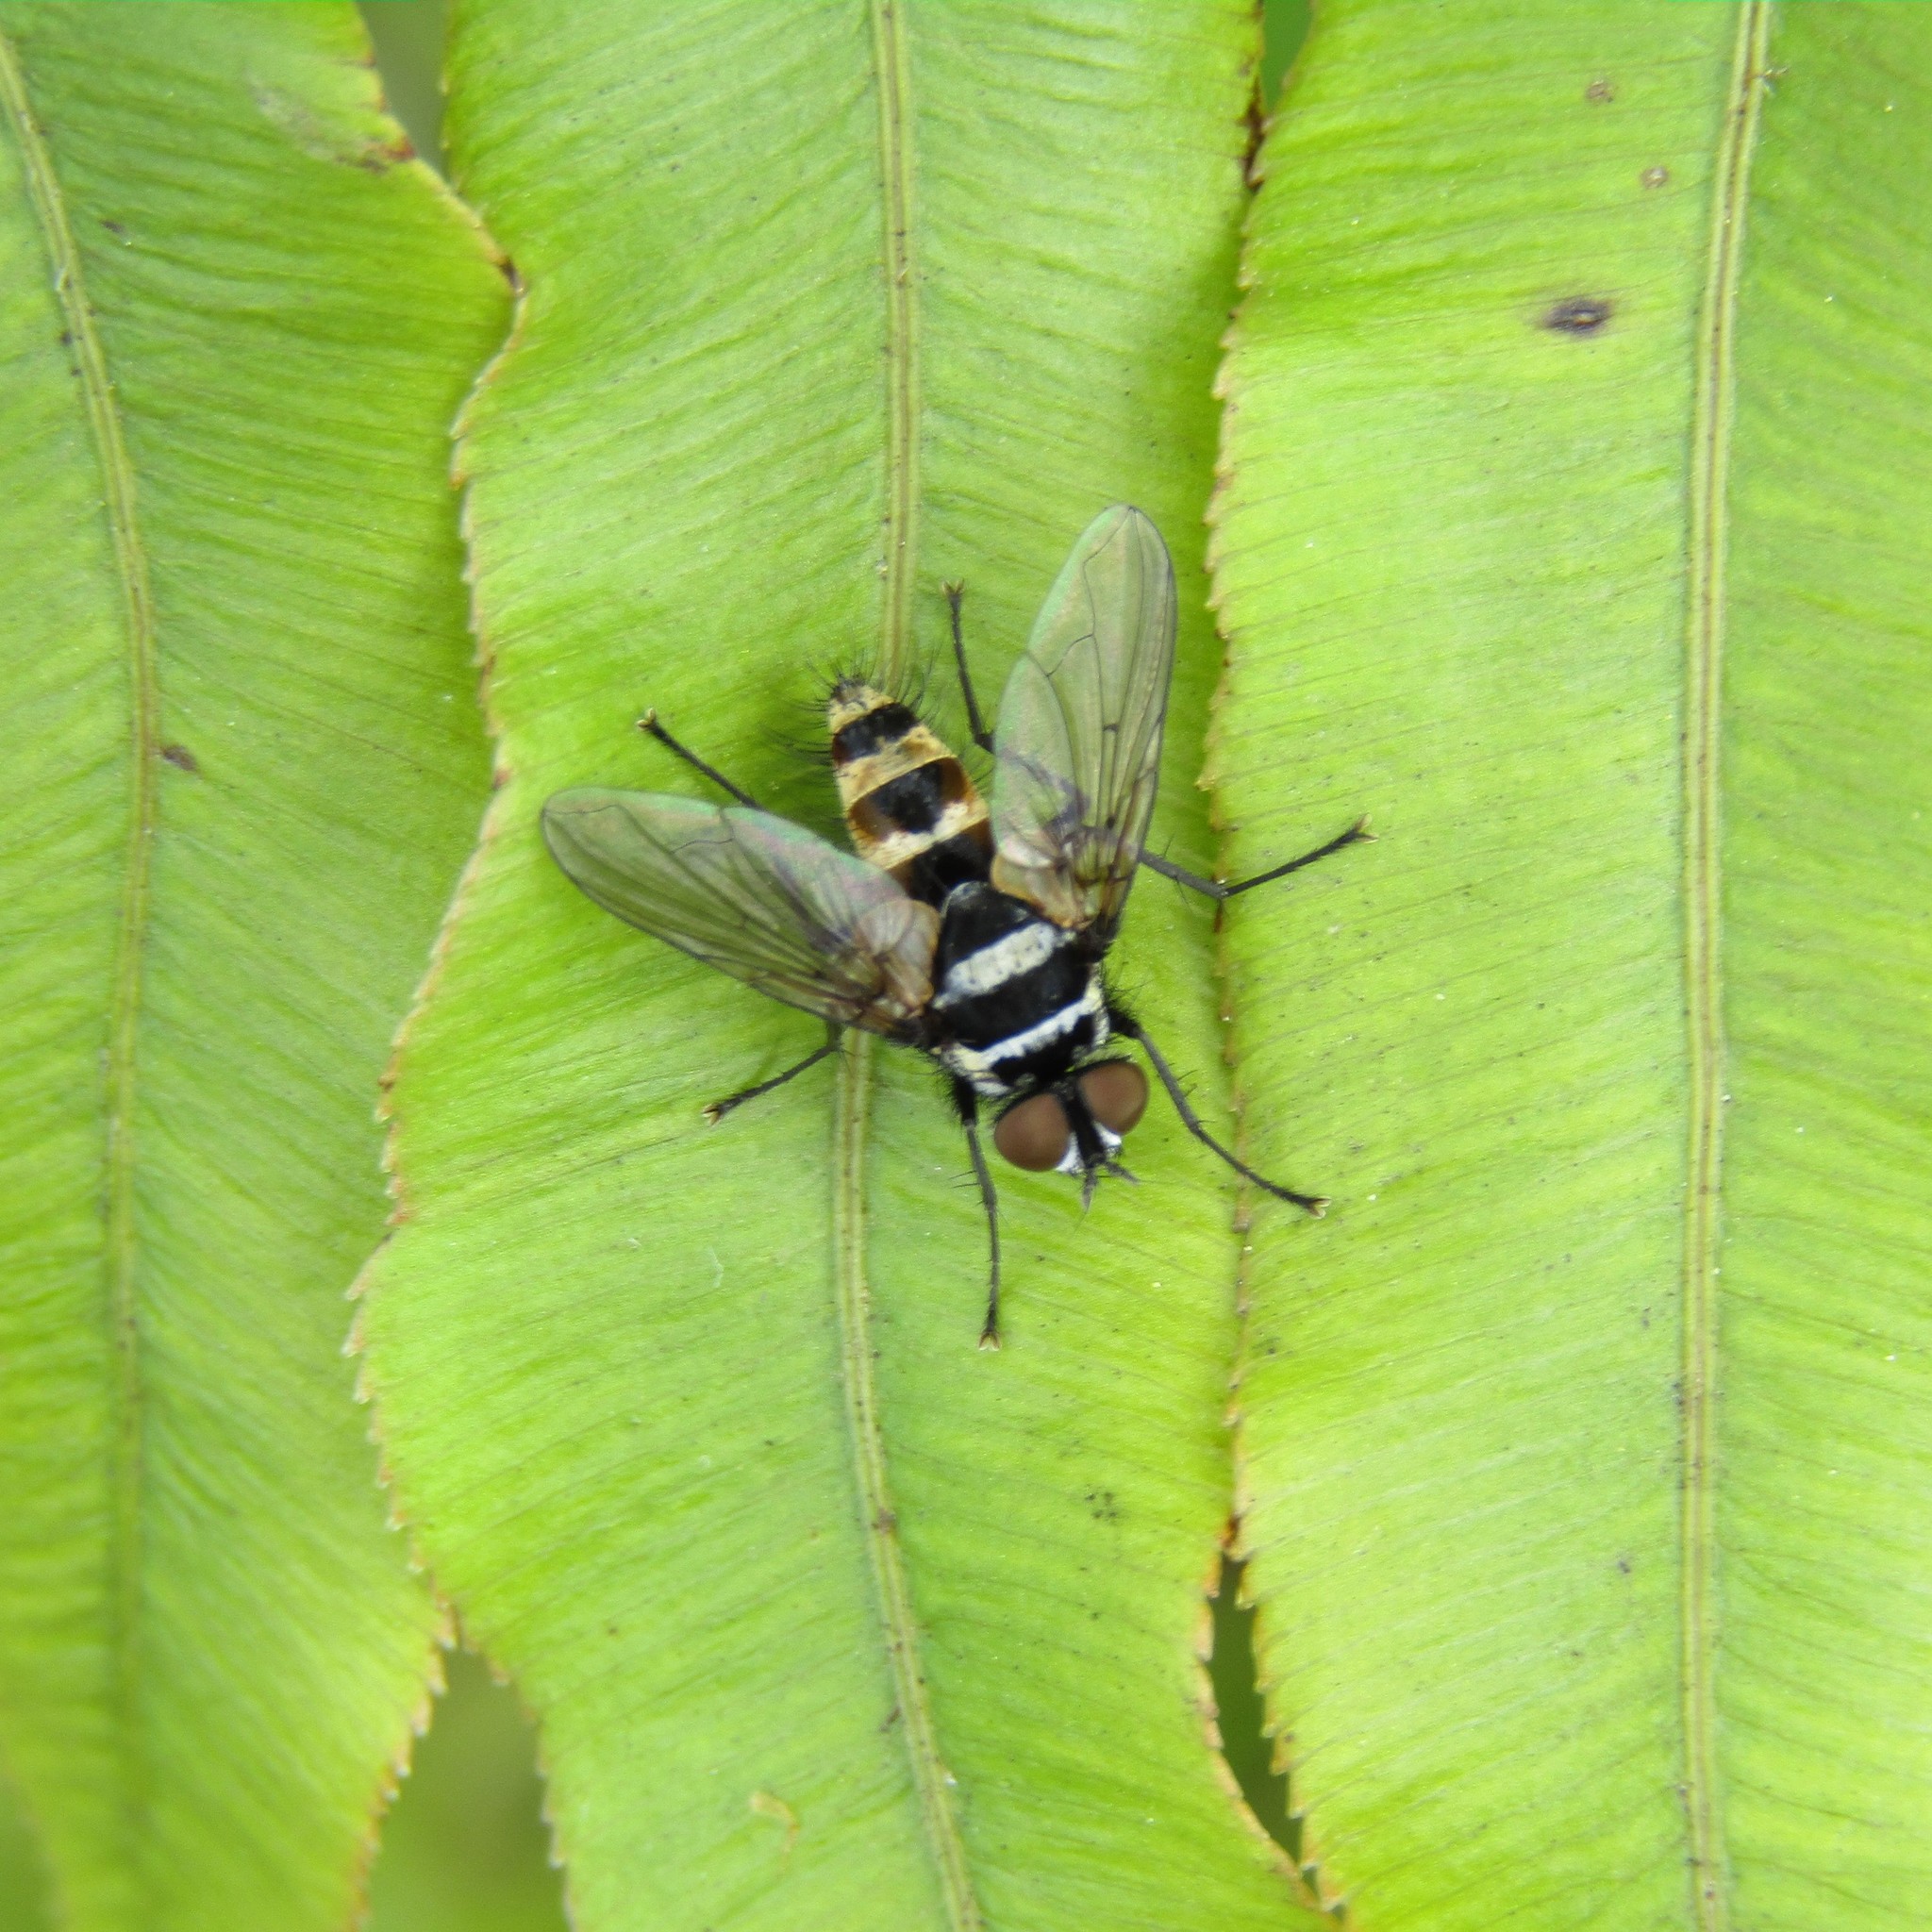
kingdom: Animalia
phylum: Arthropoda
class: Insecta
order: Diptera
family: Tachinidae
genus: Trigonospila
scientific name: Trigonospila brevifacies
